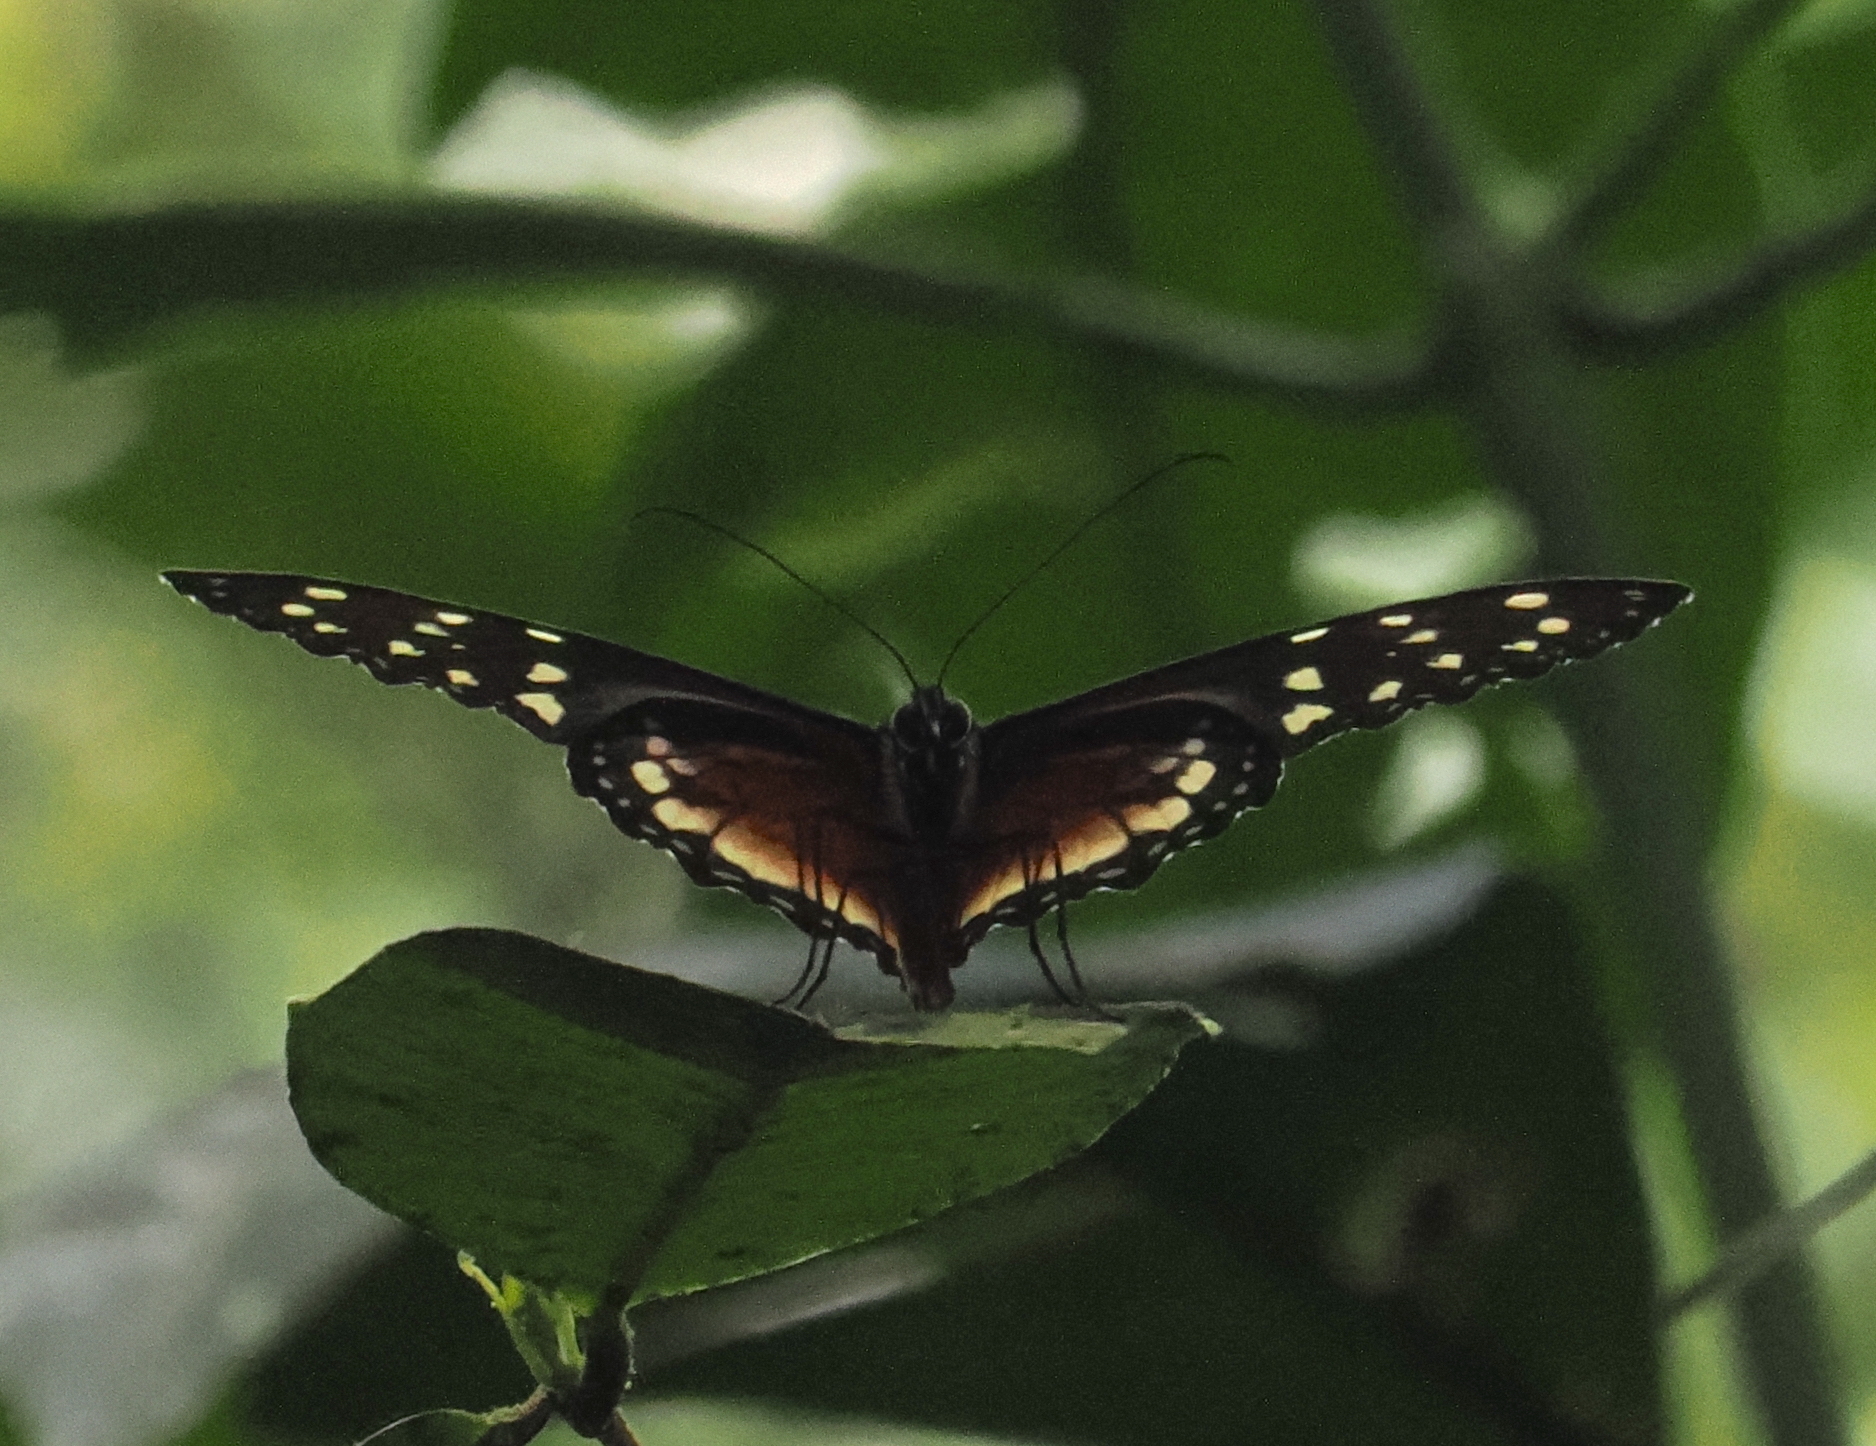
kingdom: Animalia
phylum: Arthropoda
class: Insecta
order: Lepidoptera
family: Nymphalidae
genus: Tithorea
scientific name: Tithorea tarricina
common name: Cream-spotted tigerwing
